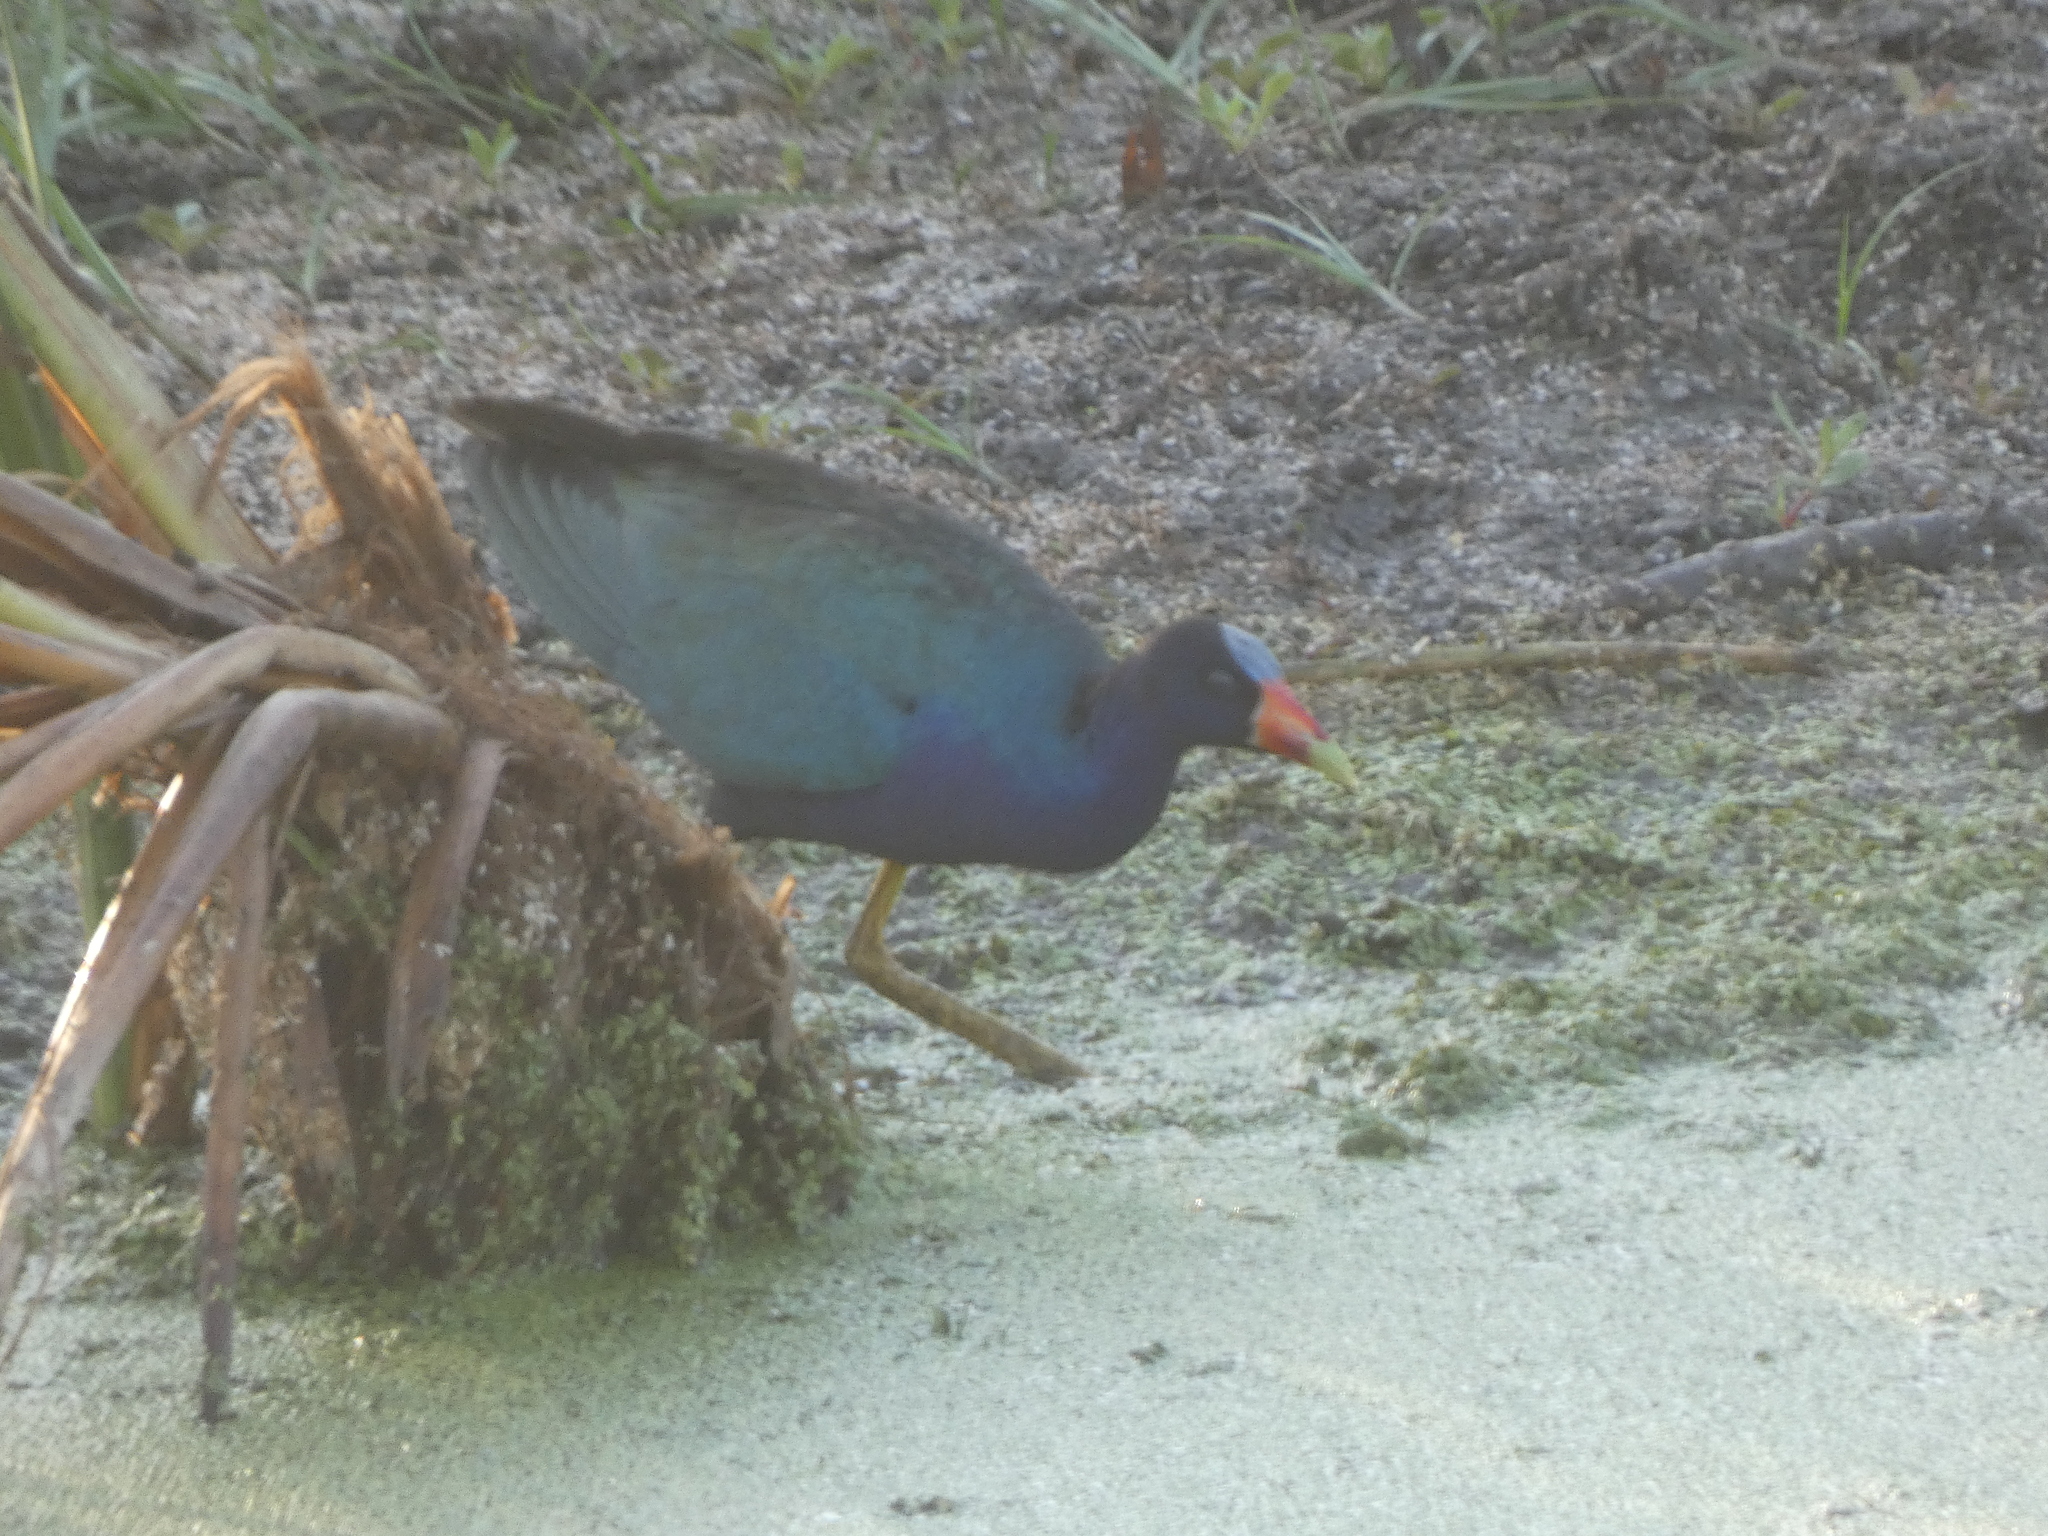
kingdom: Animalia
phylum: Chordata
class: Aves
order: Gruiformes
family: Rallidae
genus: Porphyrio
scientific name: Porphyrio martinica
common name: Purple gallinule
